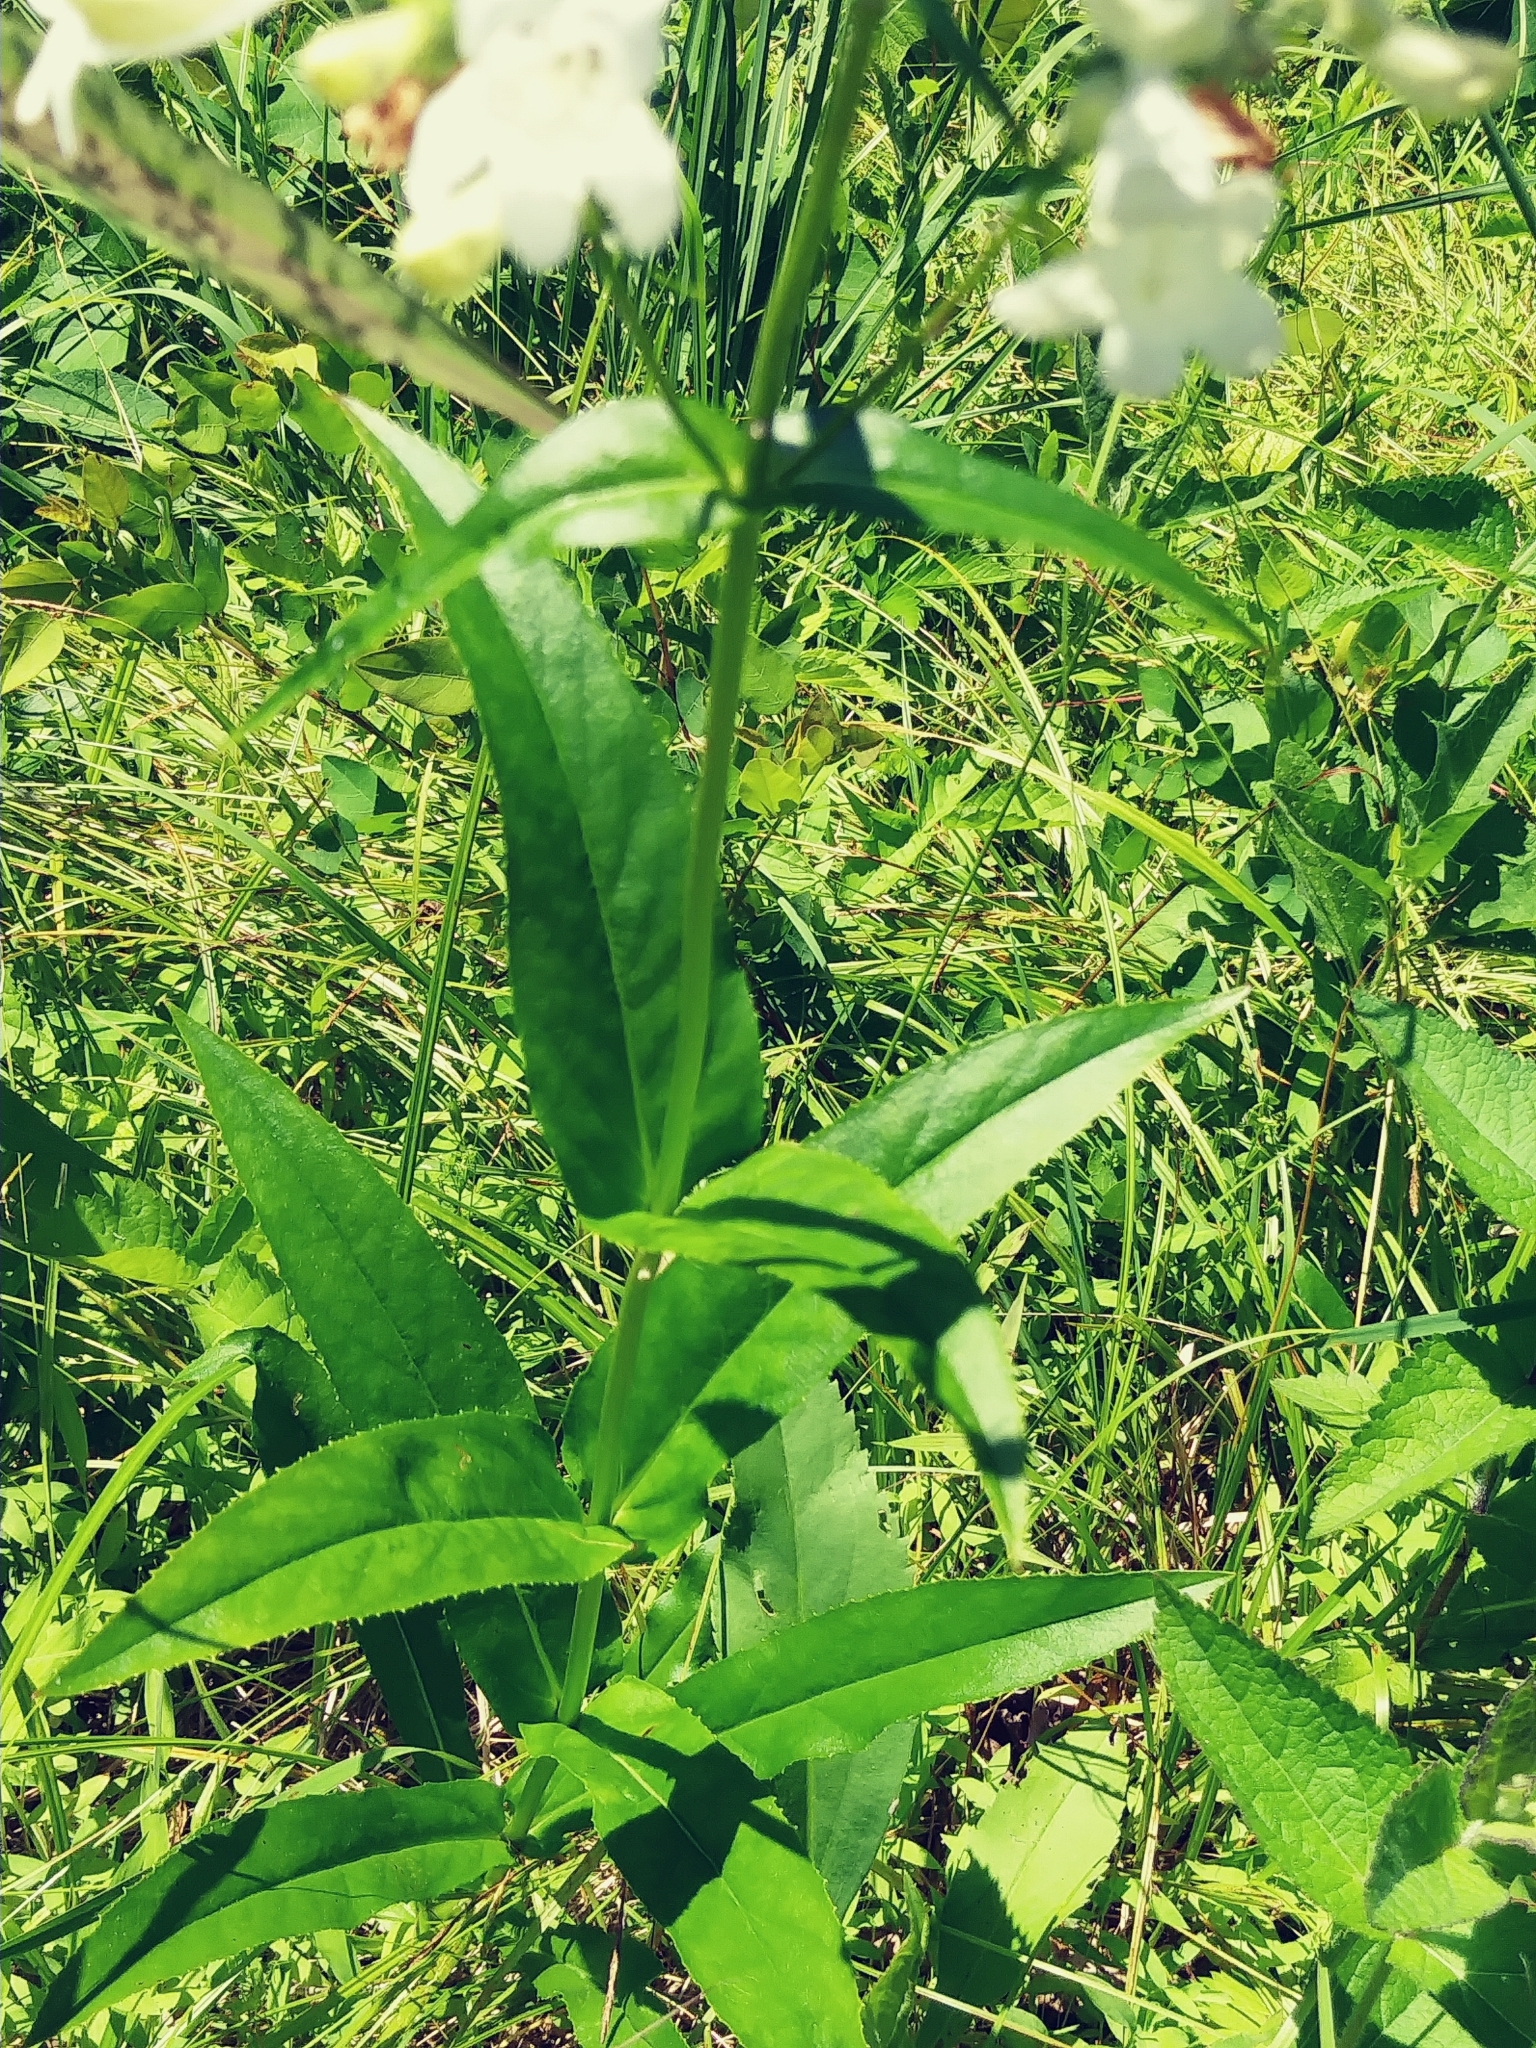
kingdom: Plantae
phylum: Tracheophyta
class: Magnoliopsida
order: Lamiales
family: Plantaginaceae
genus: Penstemon
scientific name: Penstemon digitalis
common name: Foxglove beardtongue
